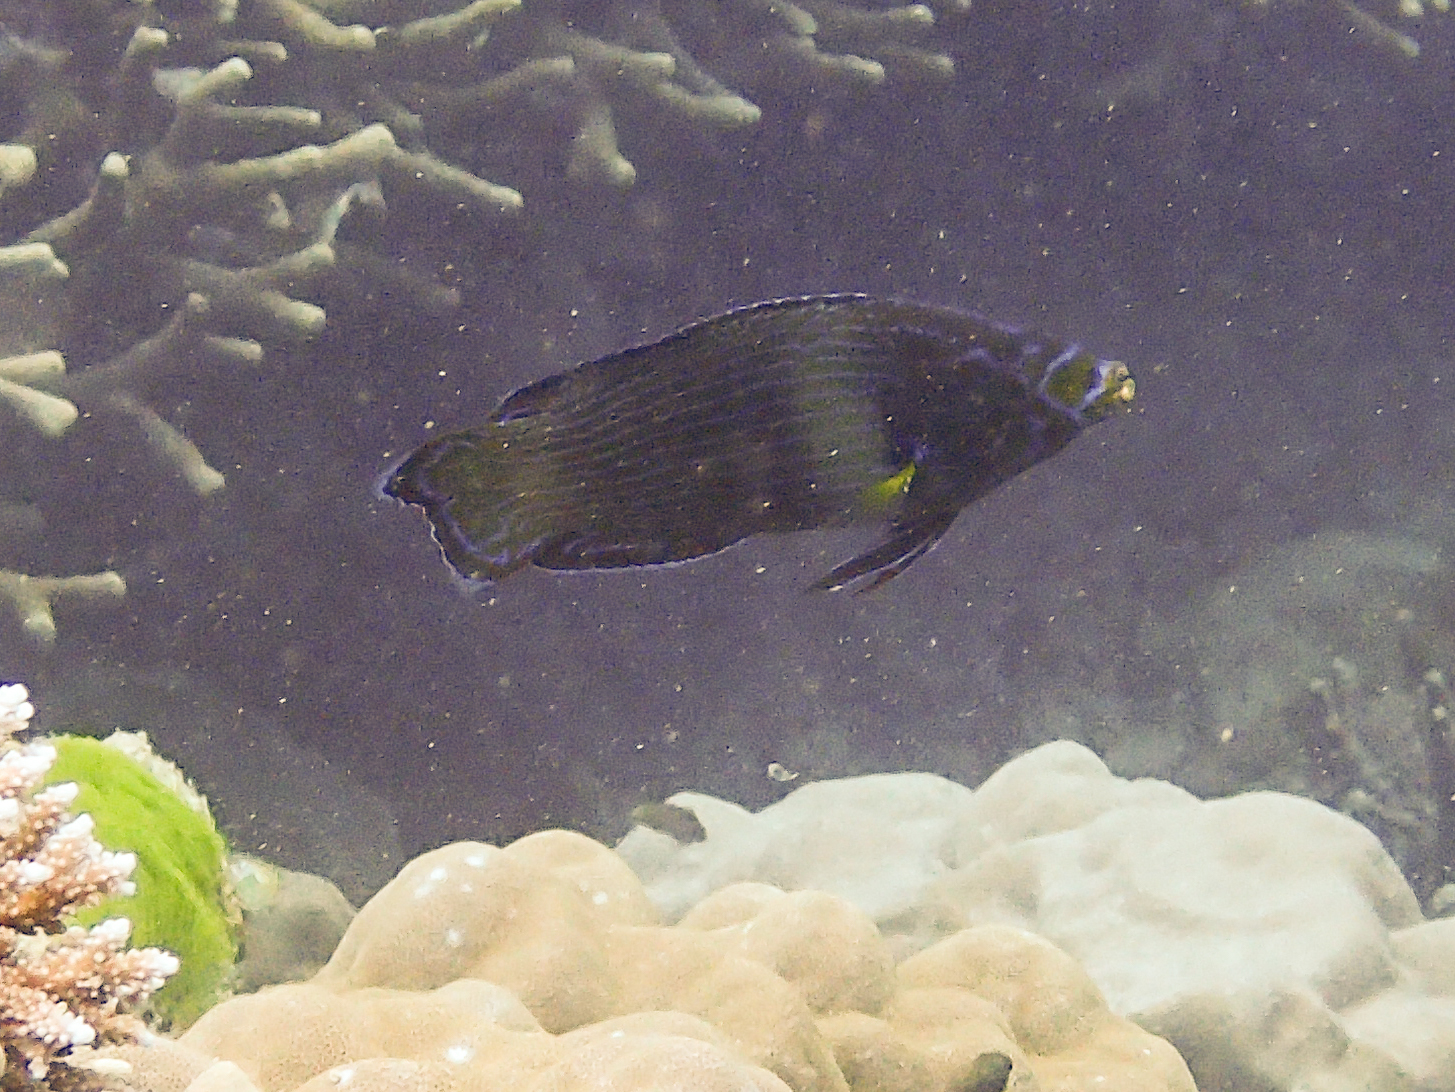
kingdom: Animalia
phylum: Chordata
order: Perciformes
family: Labridae
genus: Labrichthys
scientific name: Labrichthys unilineatus
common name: Onelined wrasse
